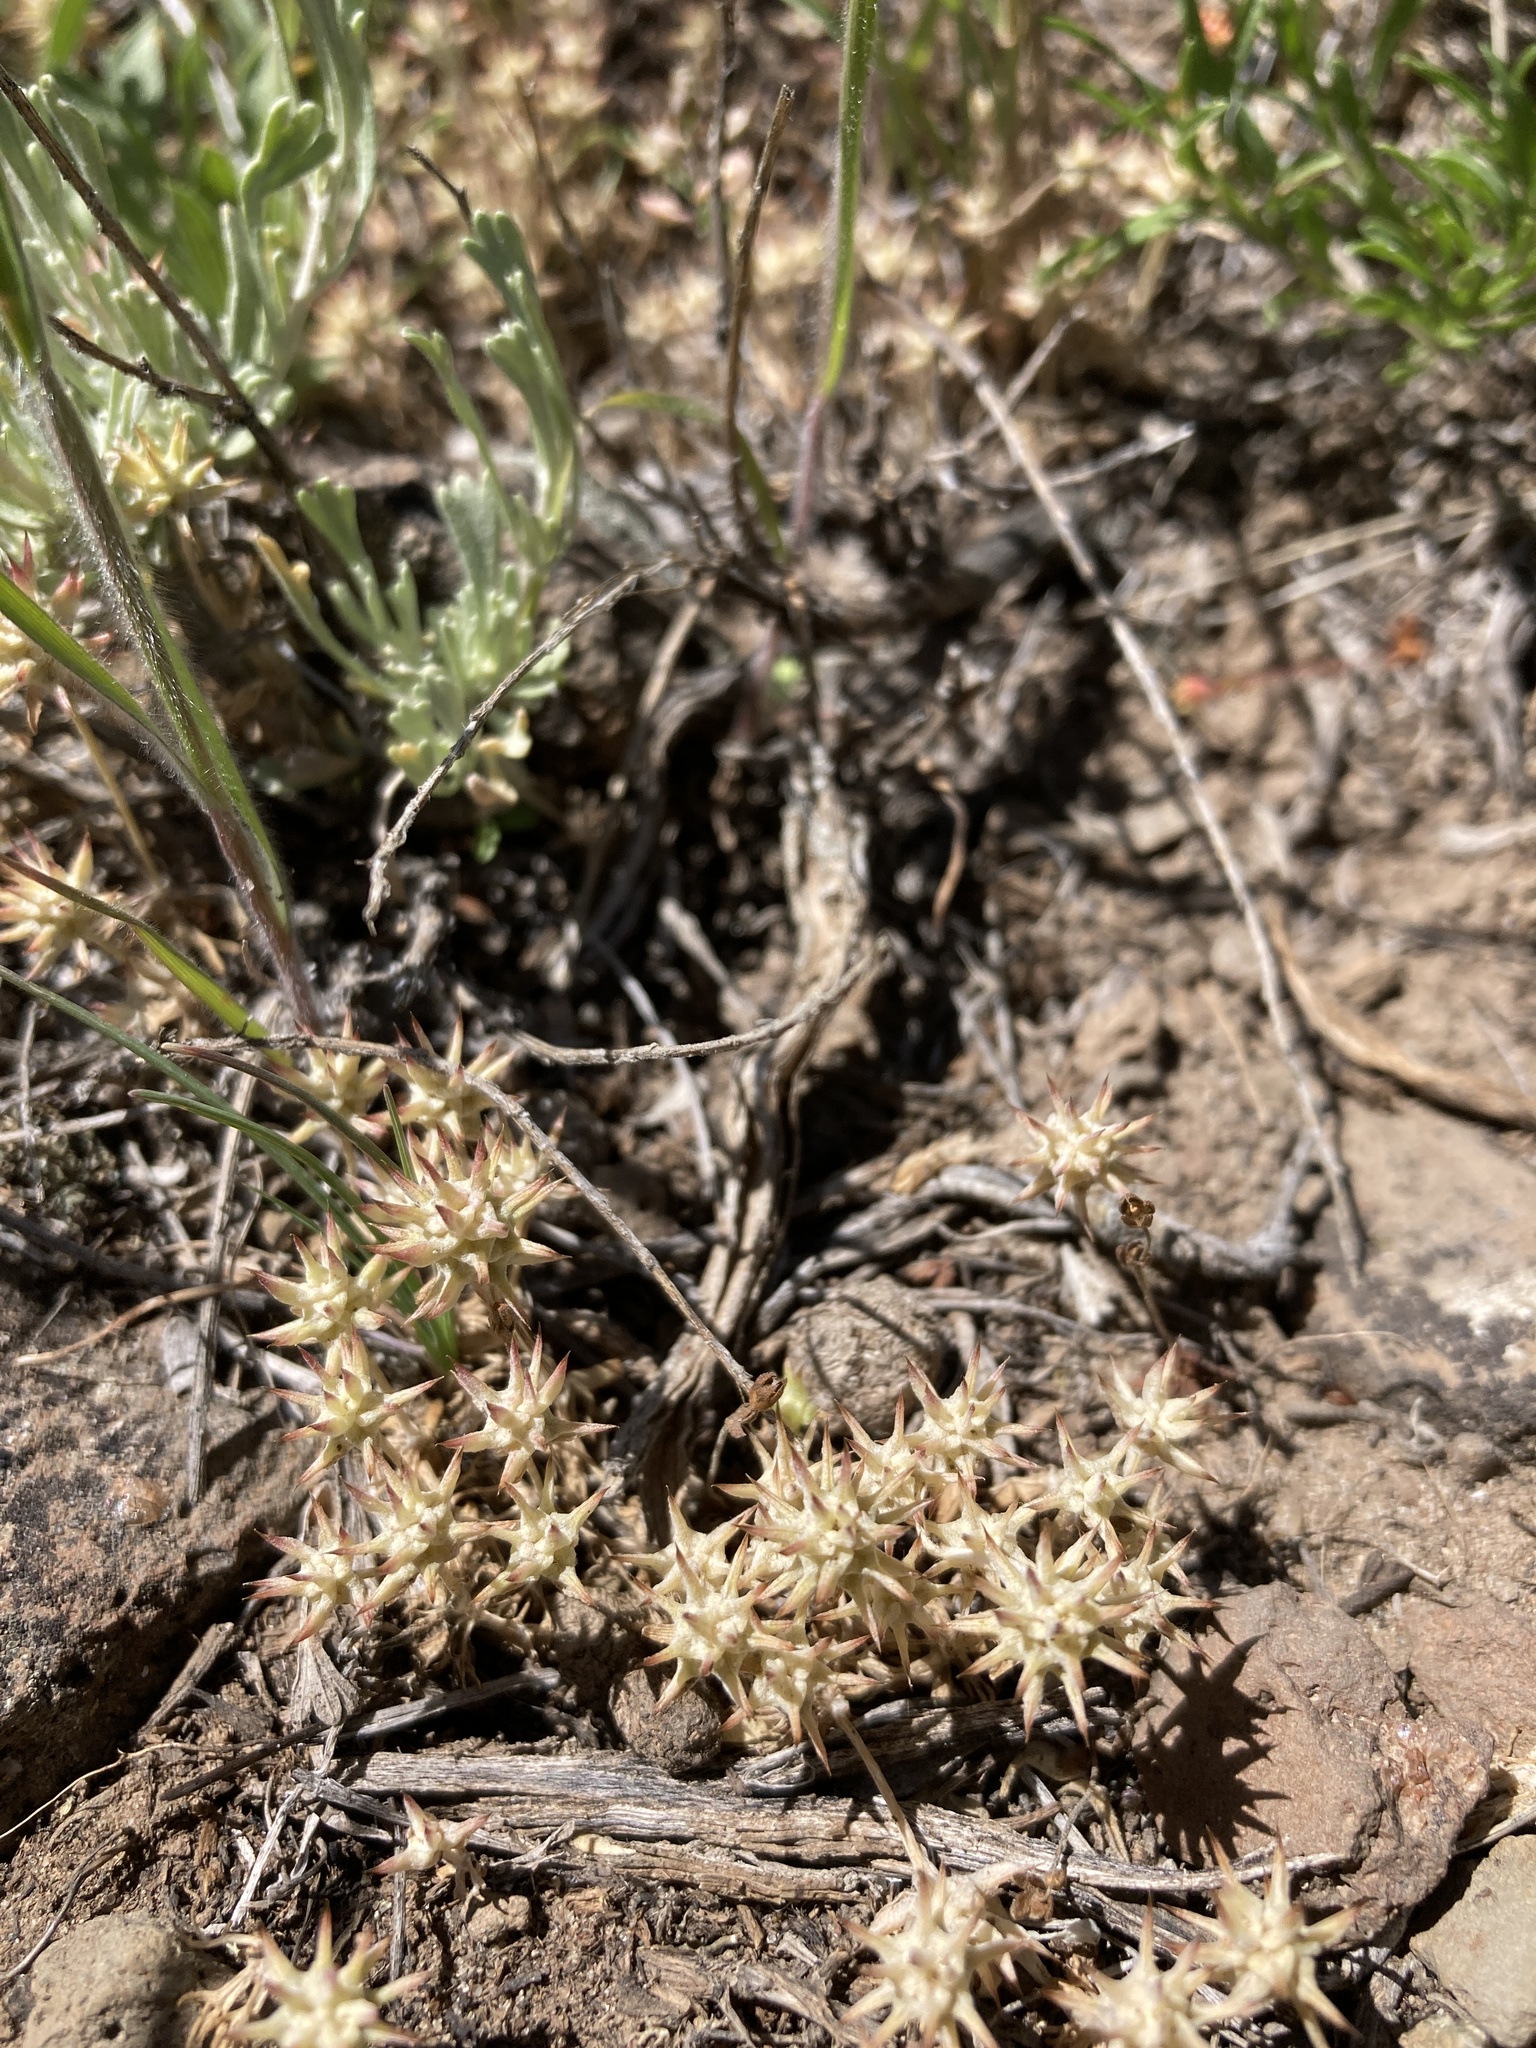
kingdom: Plantae
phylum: Tracheophyta
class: Magnoliopsida
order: Ranunculales
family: Ranunculaceae
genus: Ceratocephala
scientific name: Ceratocephala orthoceras
